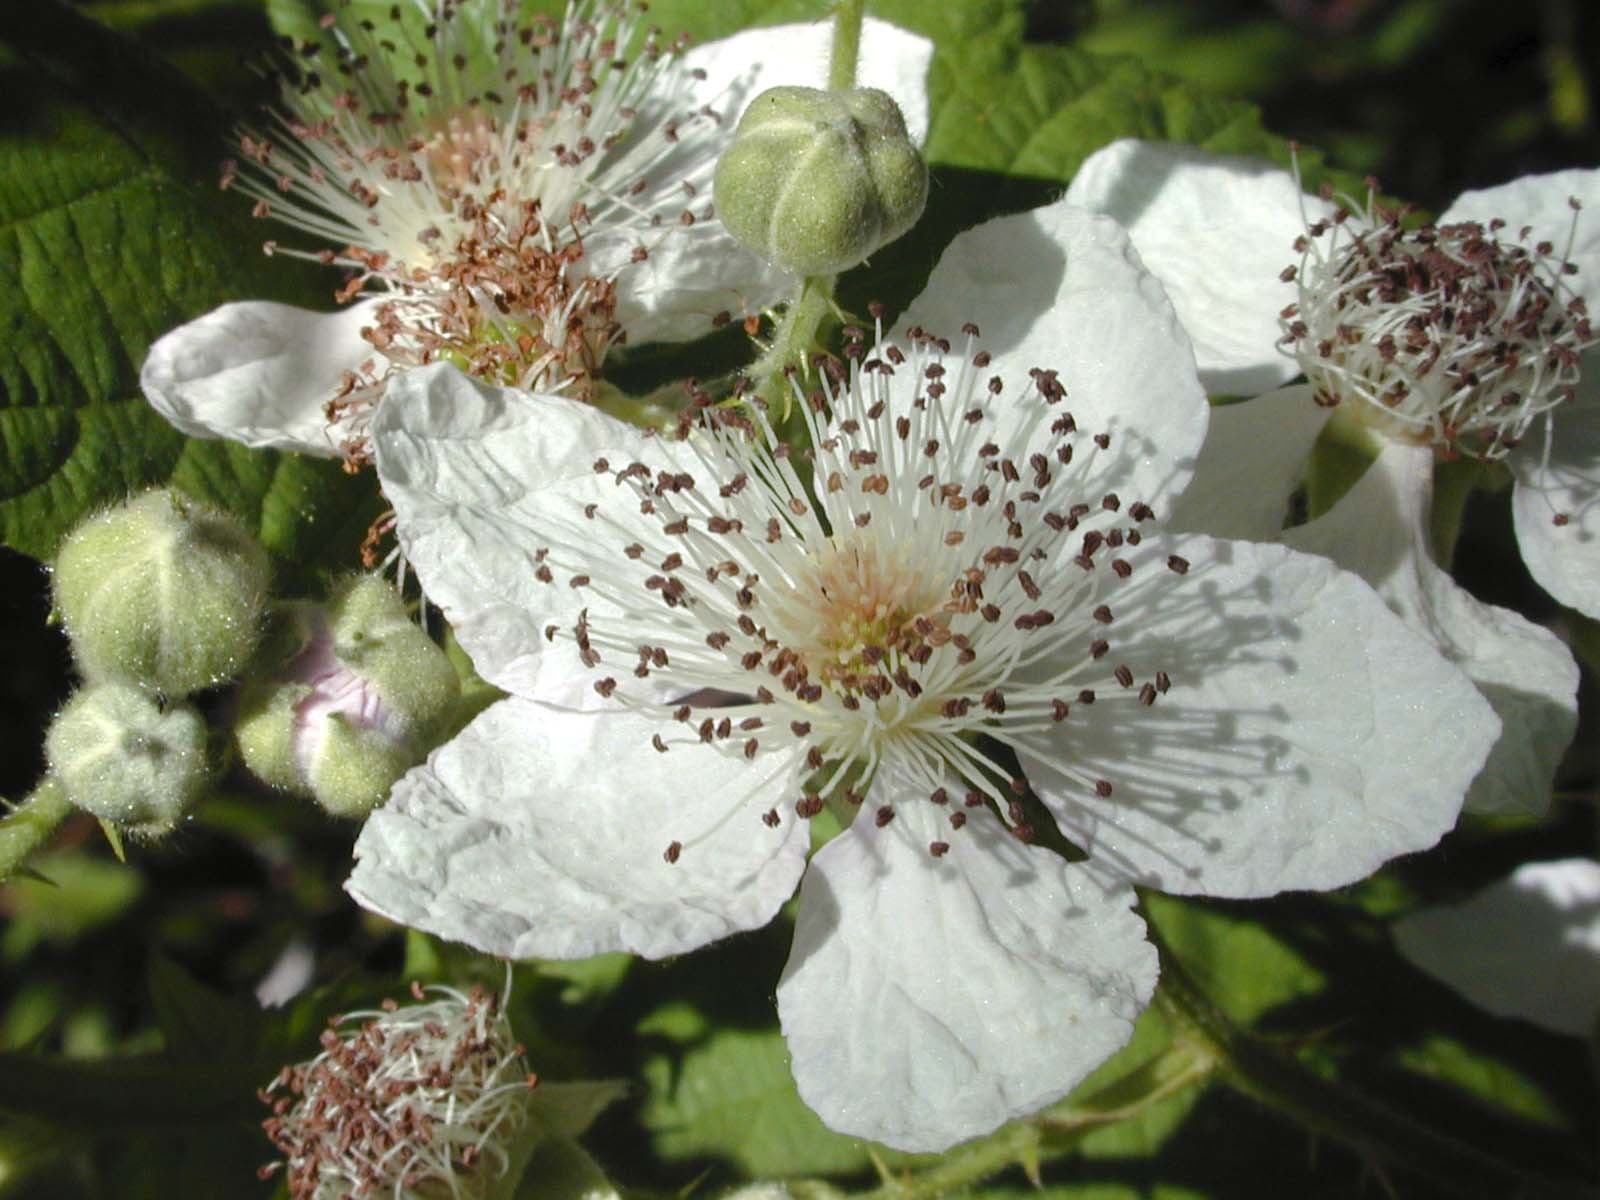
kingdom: Plantae
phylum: Tracheophyta
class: Magnoliopsida
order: Rosales
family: Rosaceae
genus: Rubus
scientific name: Rubus armeniacus
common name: Himalayan blackberry
